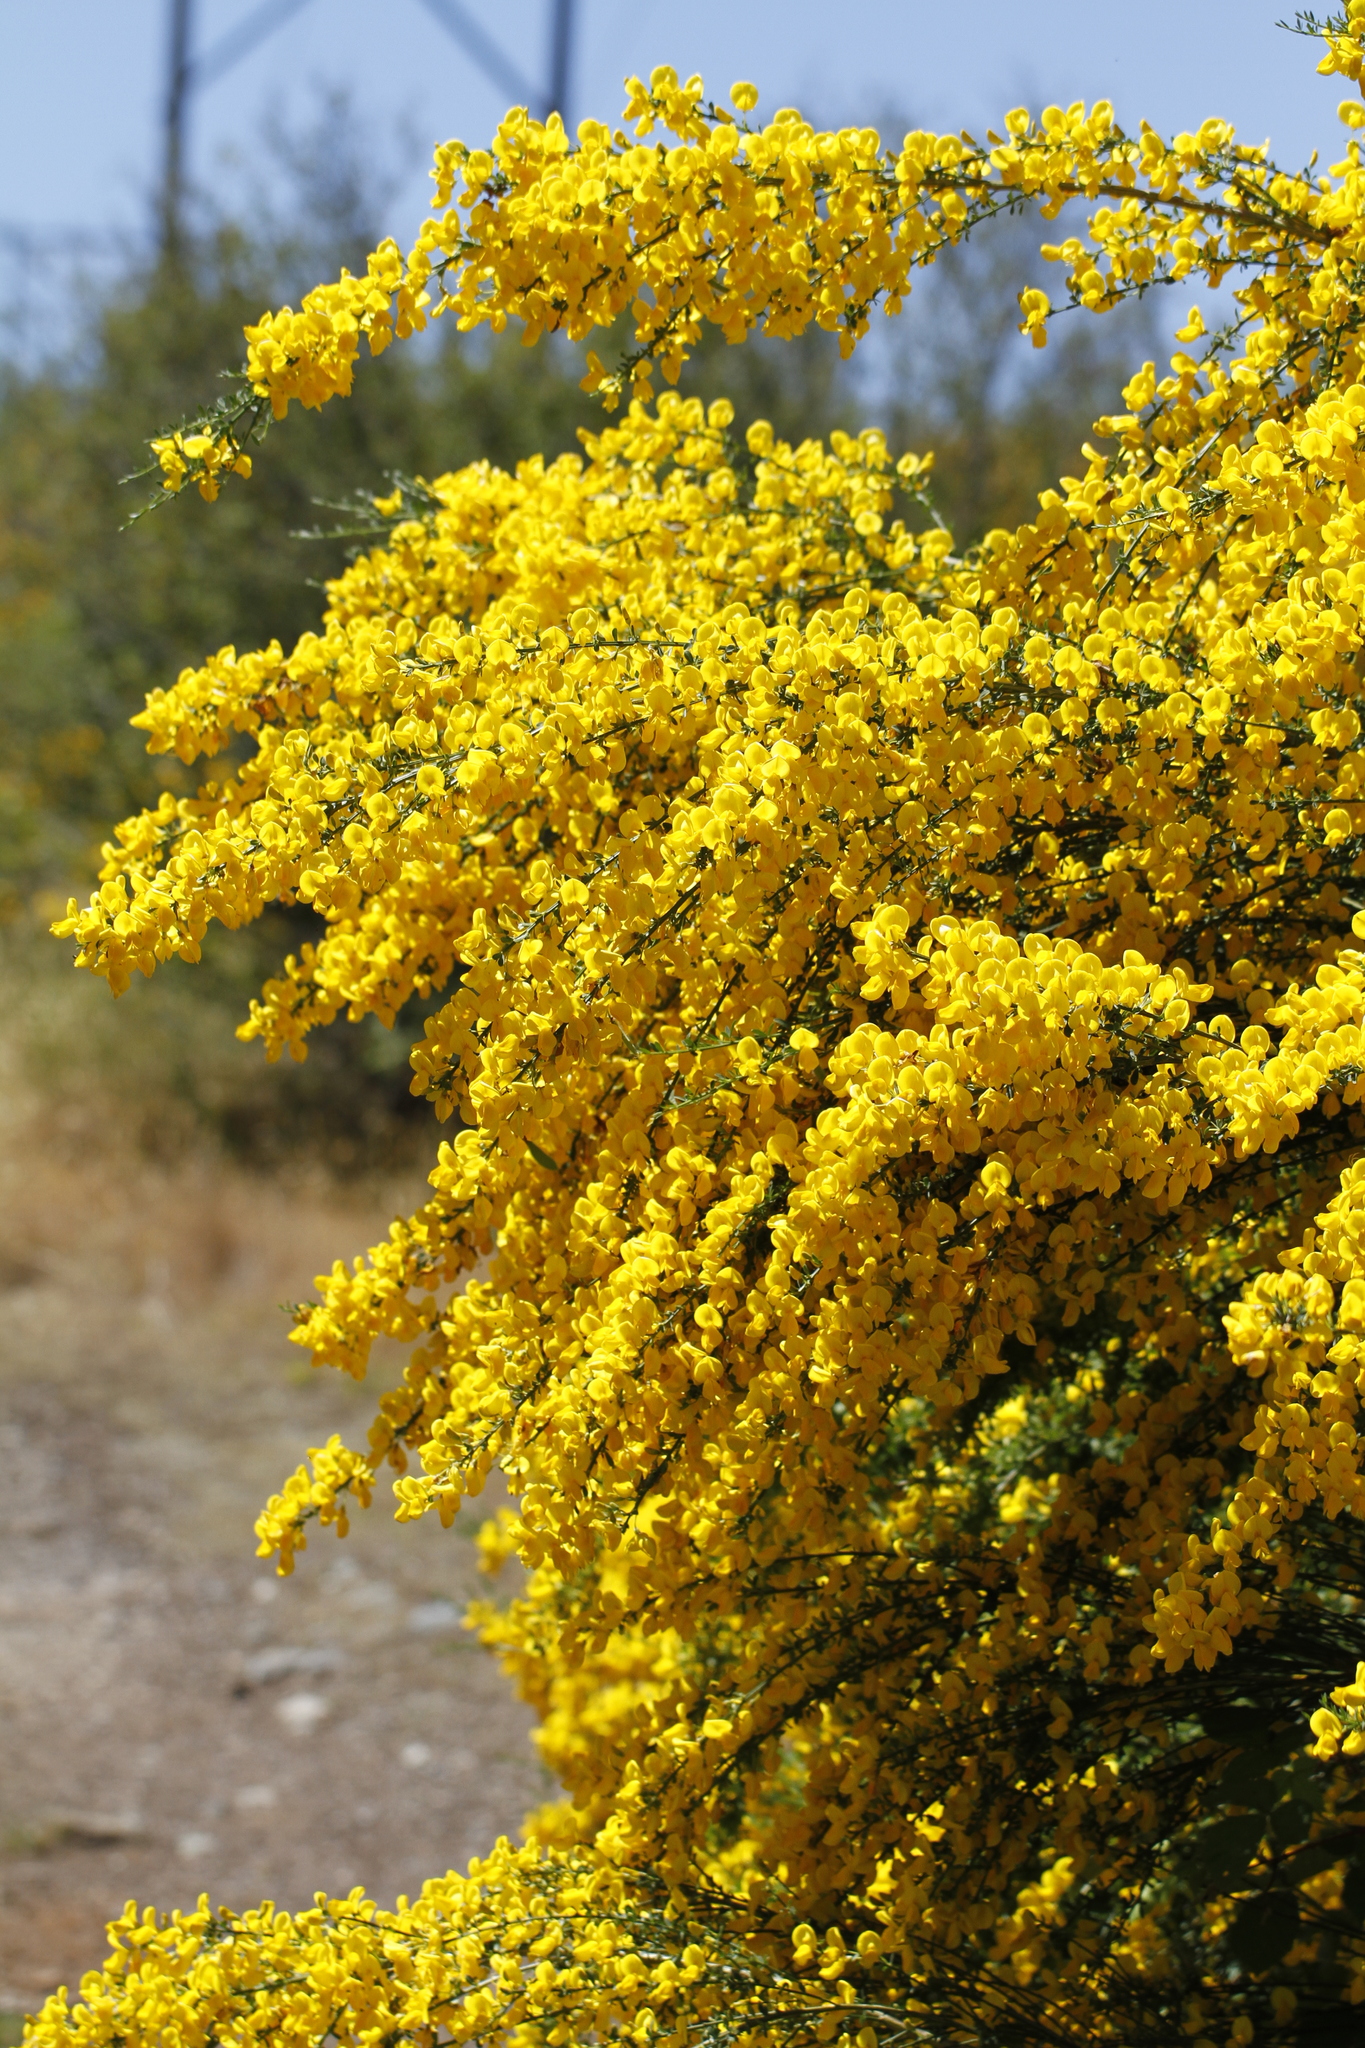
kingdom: Plantae
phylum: Tracheophyta
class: Magnoliopsida
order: Fabales
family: Fabaceae
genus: Cytisus
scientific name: Cytisus scoparius
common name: Scotch broom
